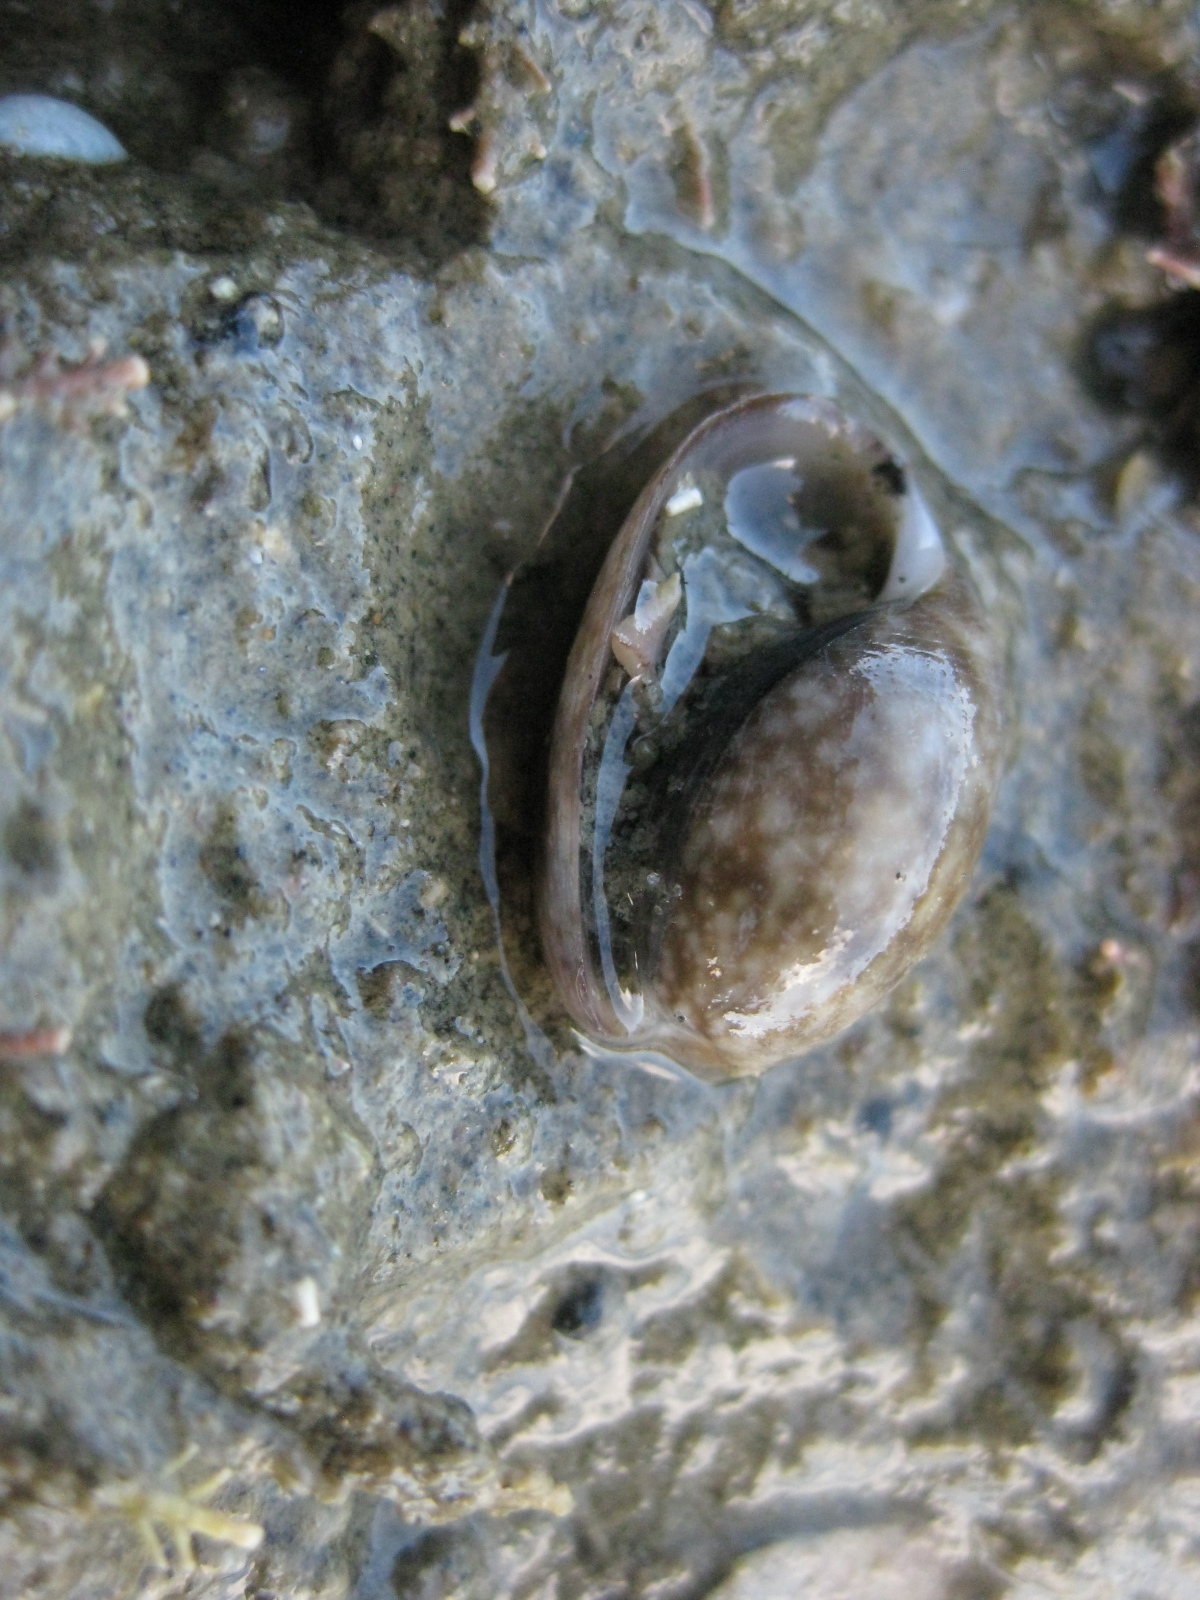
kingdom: Animalia
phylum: Mollusca
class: Gastropoda
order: Cephalaspidea
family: Bullidae
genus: Bulla
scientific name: Bulla quoyii
